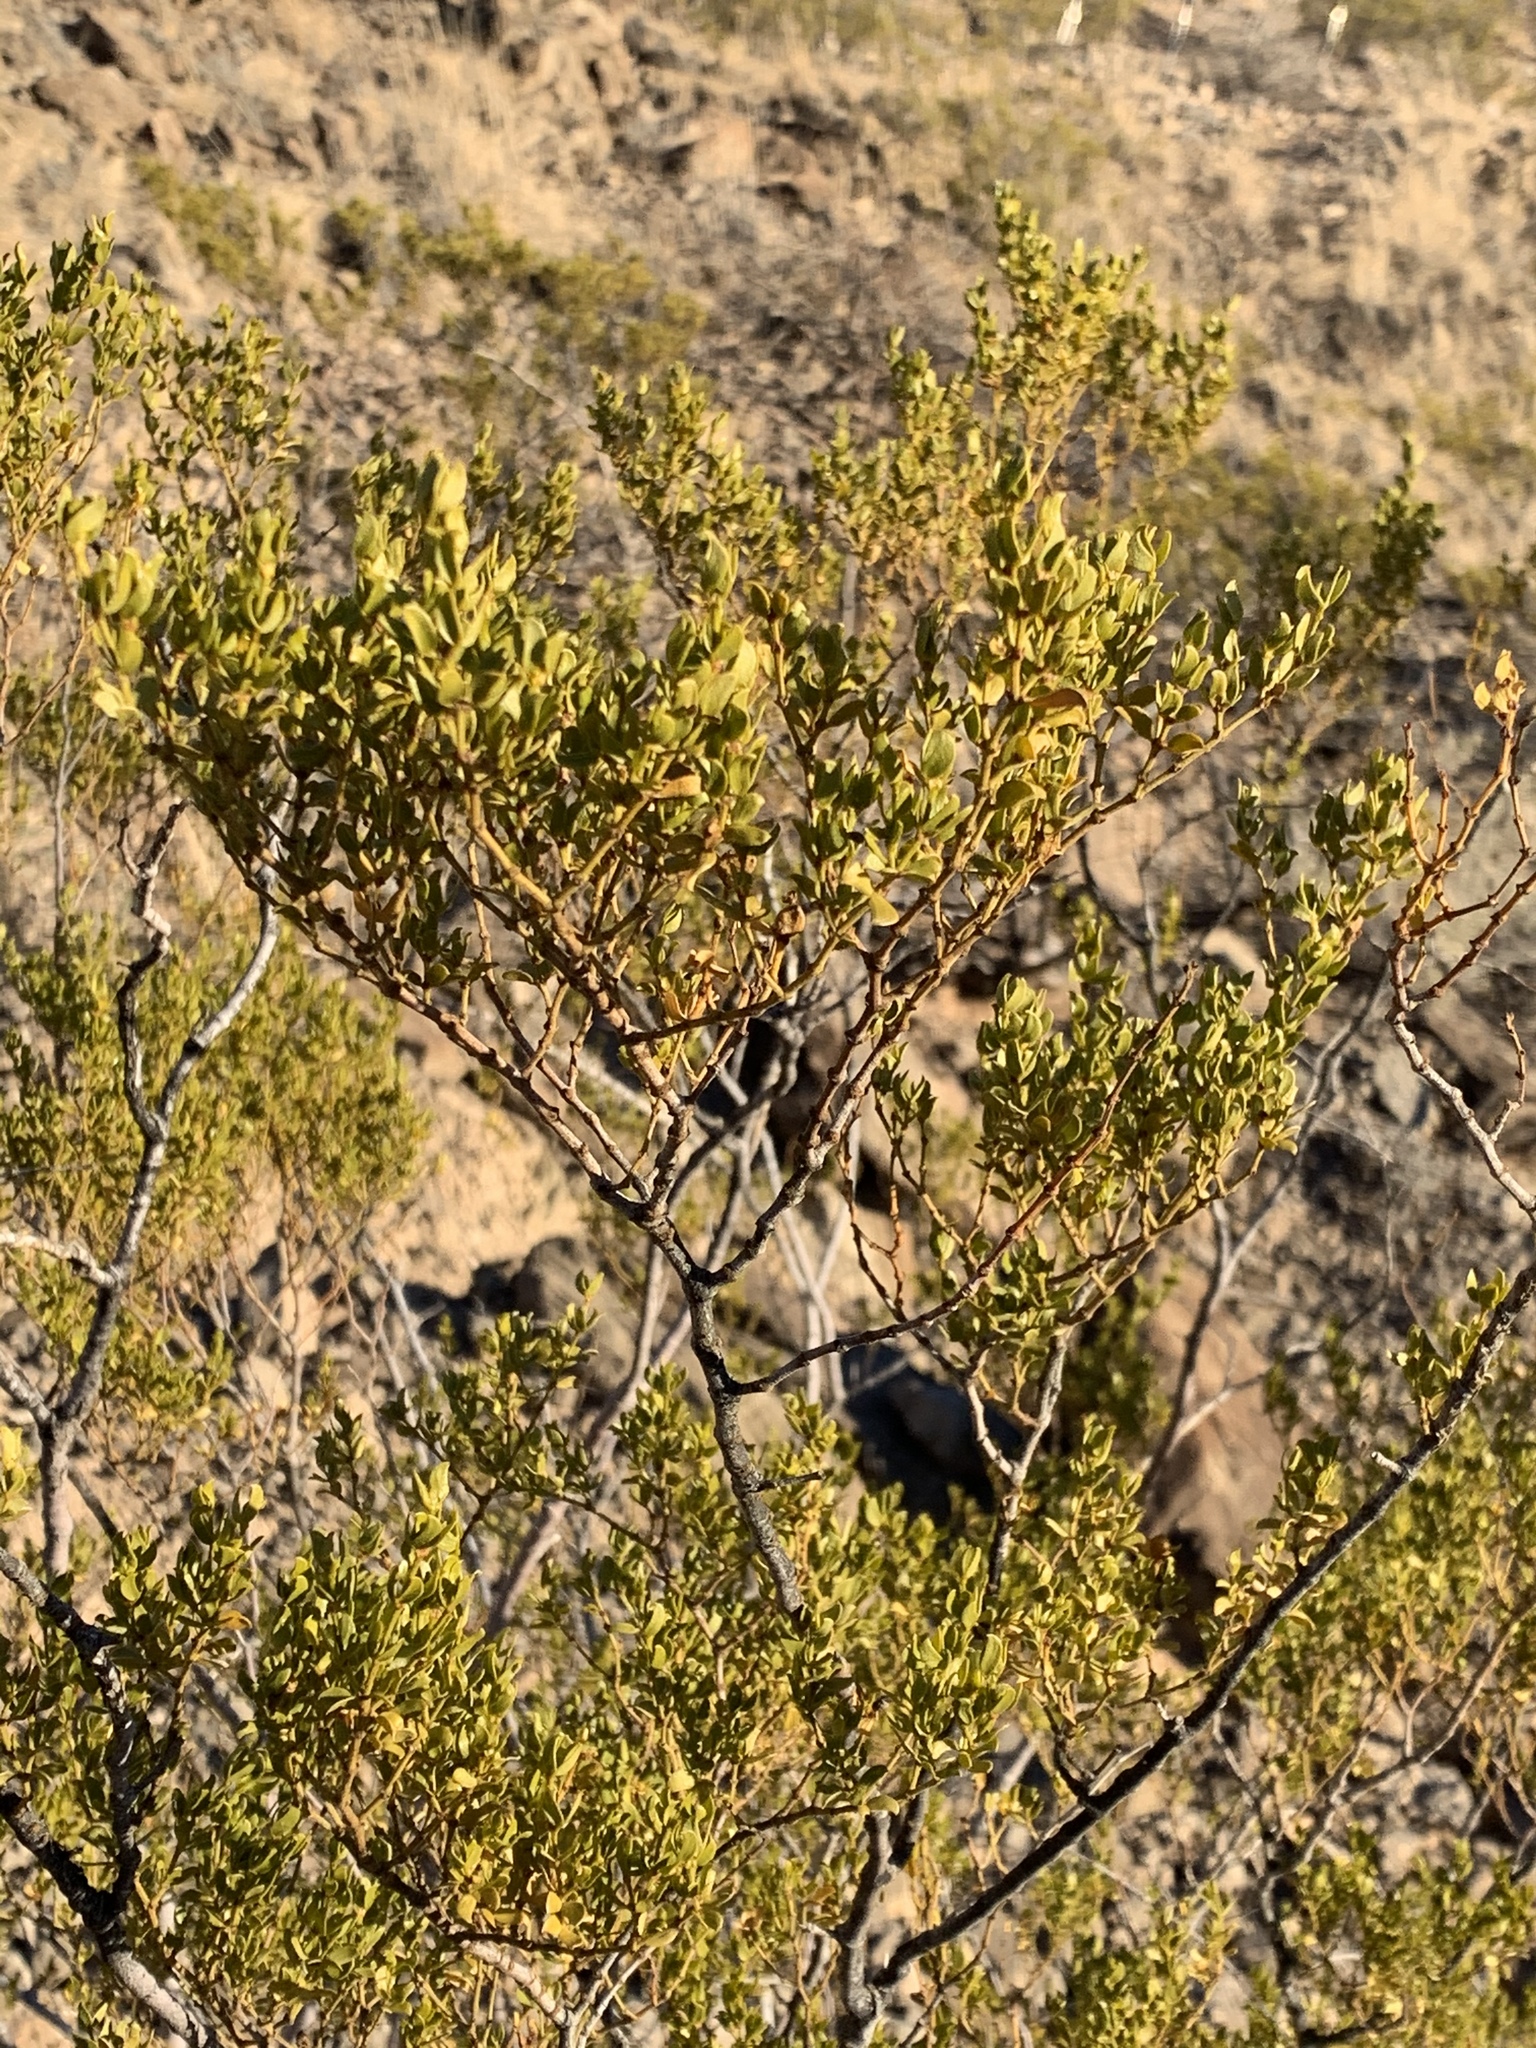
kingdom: Plantae
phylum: Tracheophyta
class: Magnoliopsida
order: Zygophyllales
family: Zygophyllaceae
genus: Larrea
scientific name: Larrea tridentata
